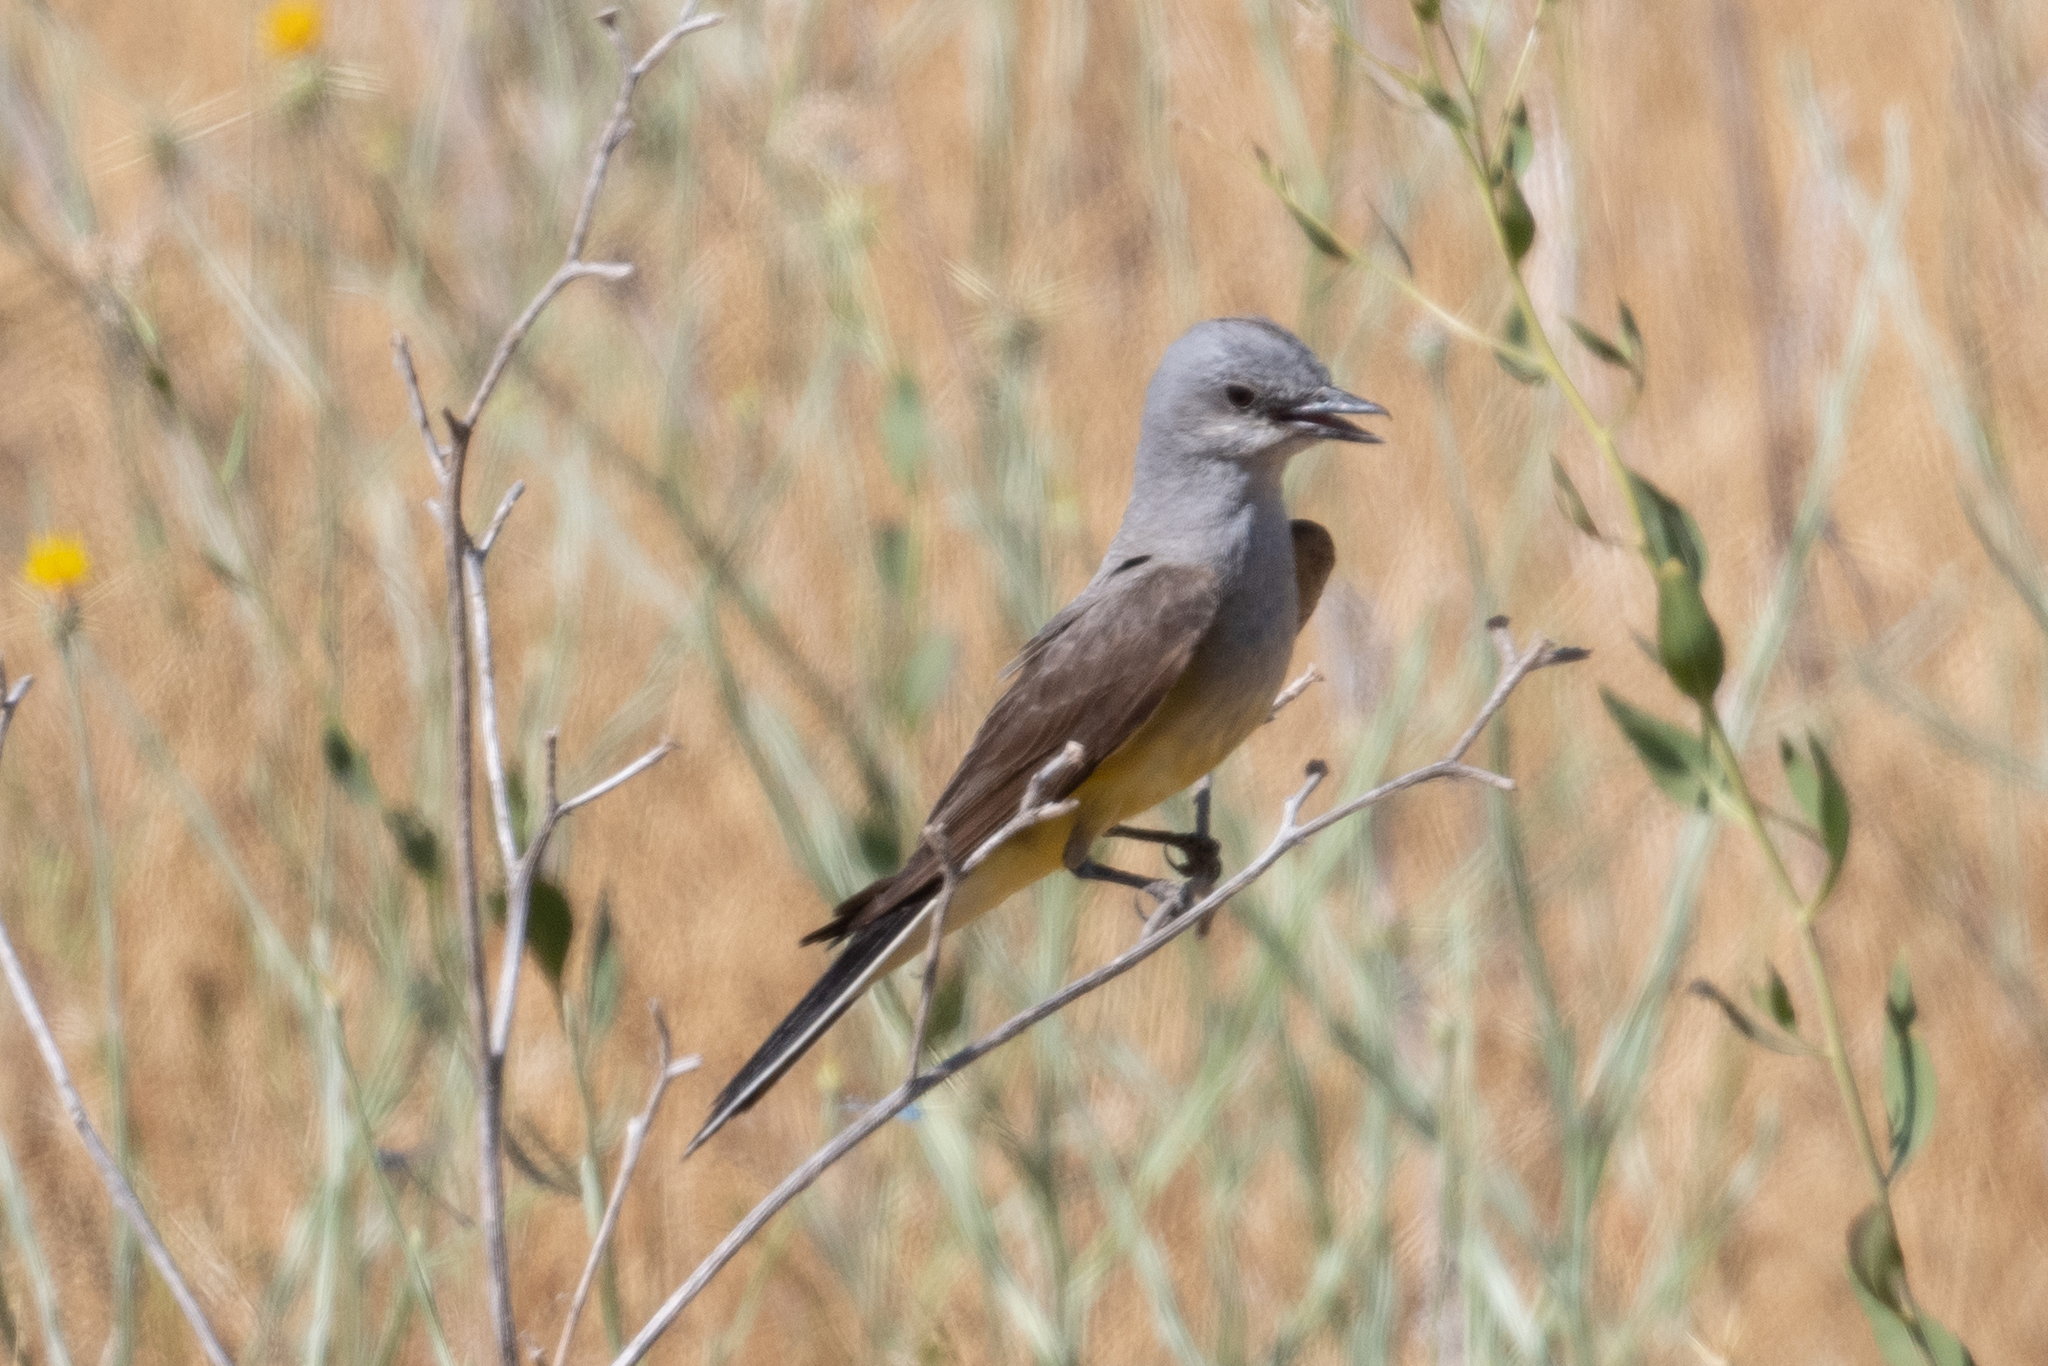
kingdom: Animalia
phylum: Chordata
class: Aves
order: Passeriformes
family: Tyrannidae
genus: Tyrannus
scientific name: Tyrannus verticalis
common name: Western kingbird
